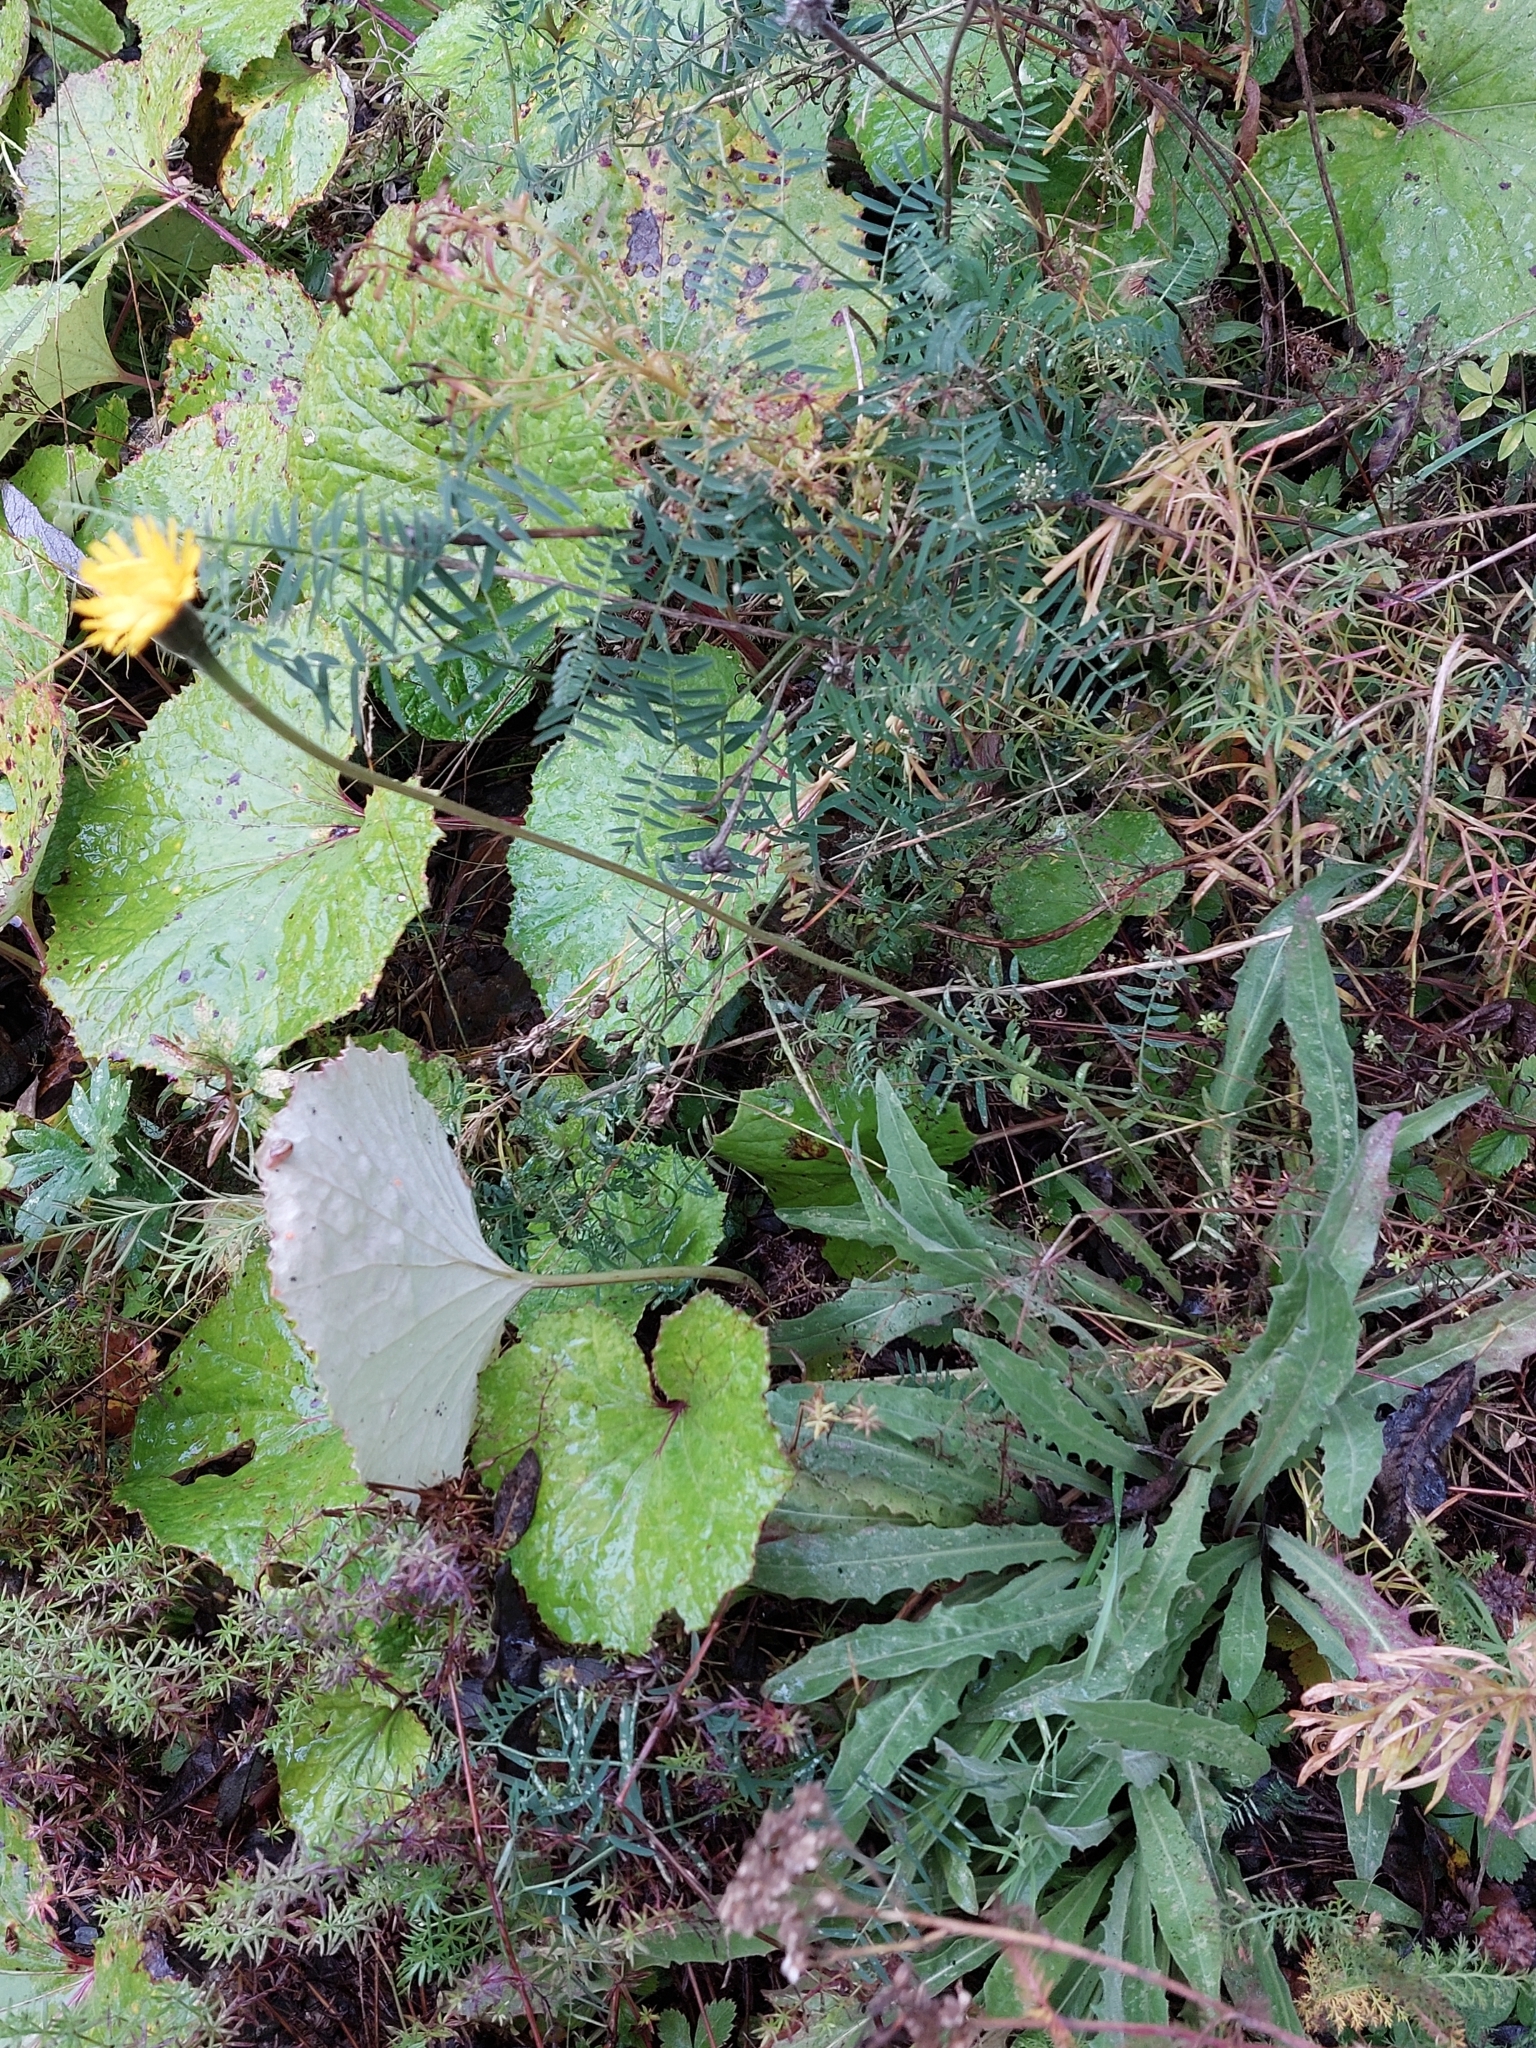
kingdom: Plantae
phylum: Tracheophyta
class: Magnoliopsida
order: Asterales
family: Asteraceae
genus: Scorzoneroides
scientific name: Scorzoneroides autumnalis
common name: Autumn hawkbit
